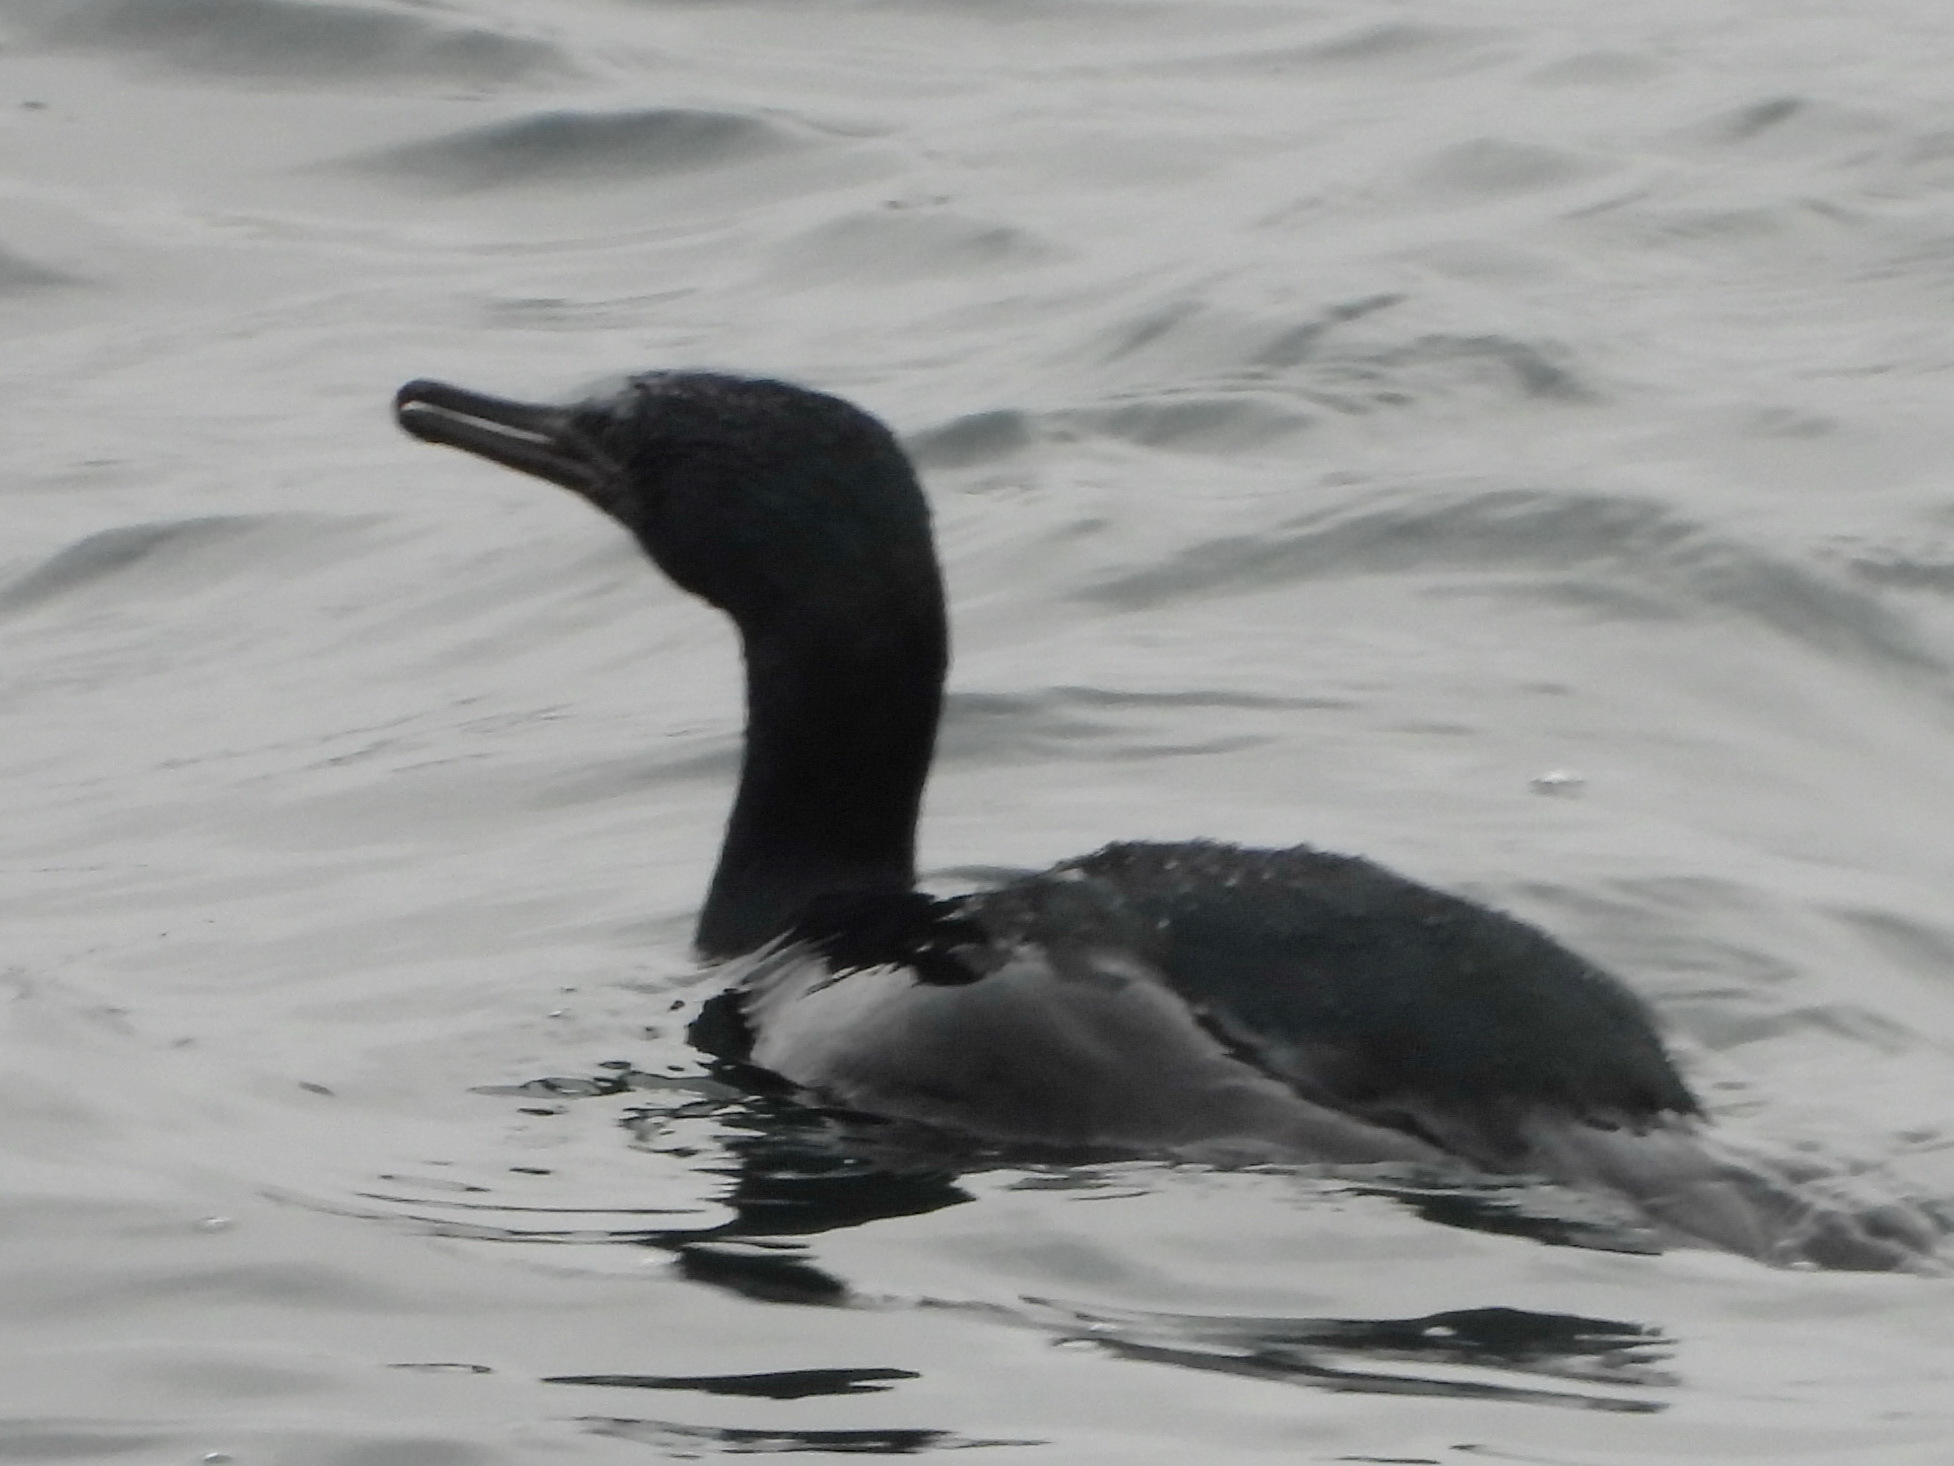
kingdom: Animalia
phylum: Chordata
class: Aves
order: Suliformes
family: Phalacrocoracidae
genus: Phalacrocorax
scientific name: Phalacrocorax pelagicus
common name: Pelagic cormorant
